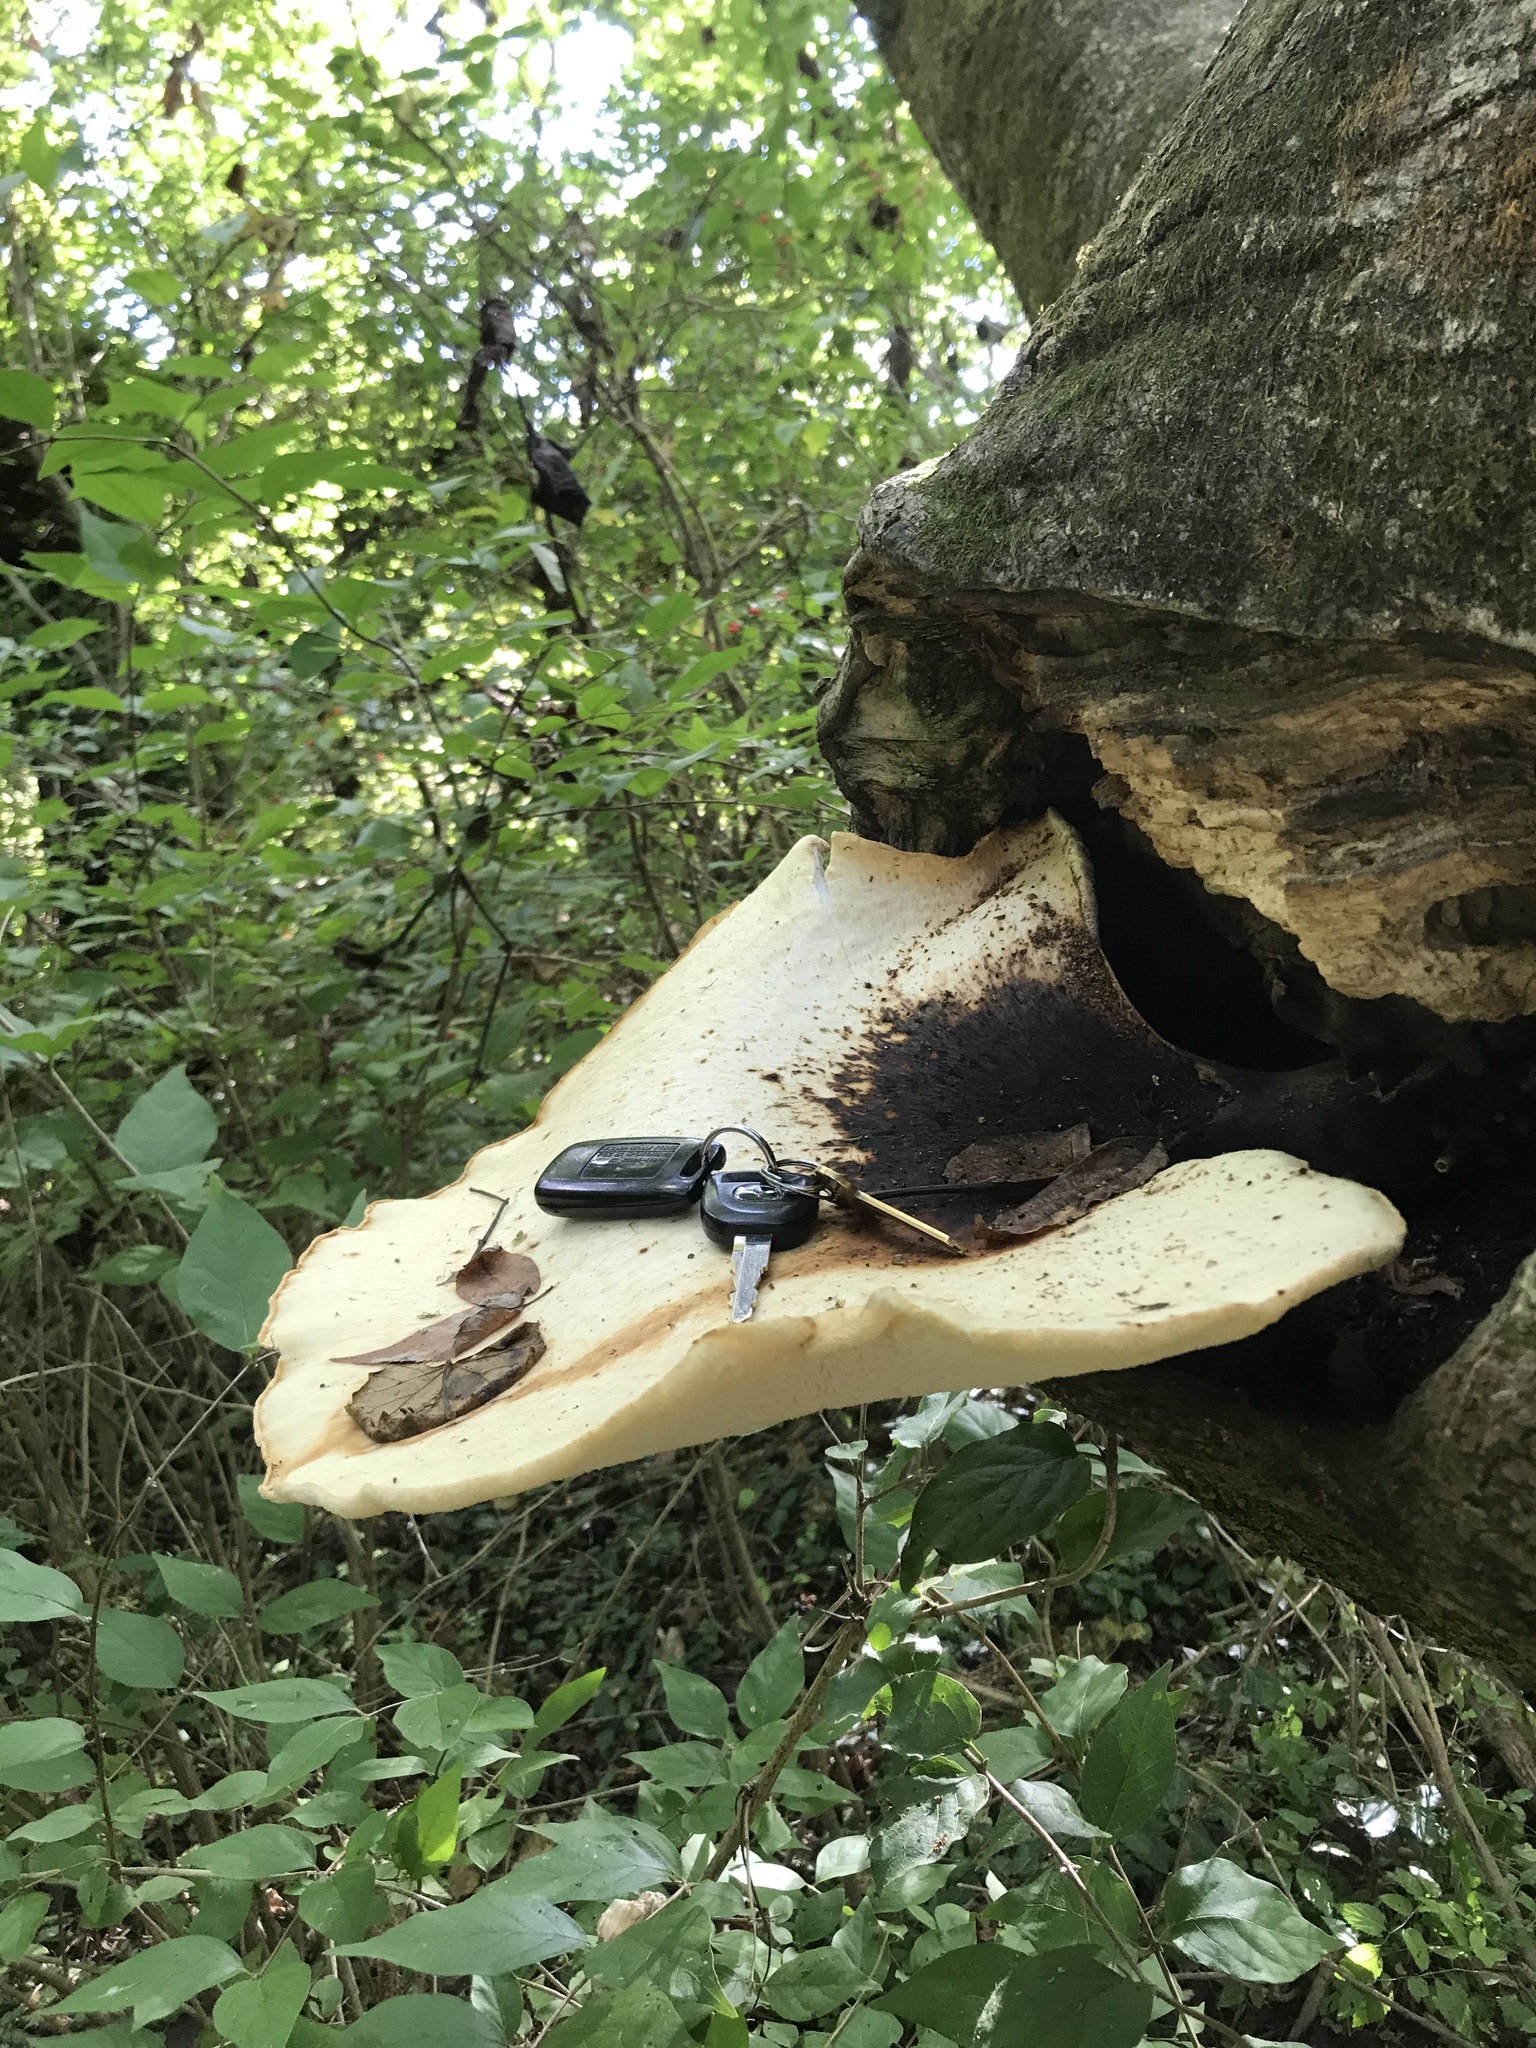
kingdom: Fungi
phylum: Basidiomycota
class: Agaricomycetes
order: Polyporales
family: Polyporaceae
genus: Cerioporus
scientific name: Cerioporus squamosus
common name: Dryad's saddle
